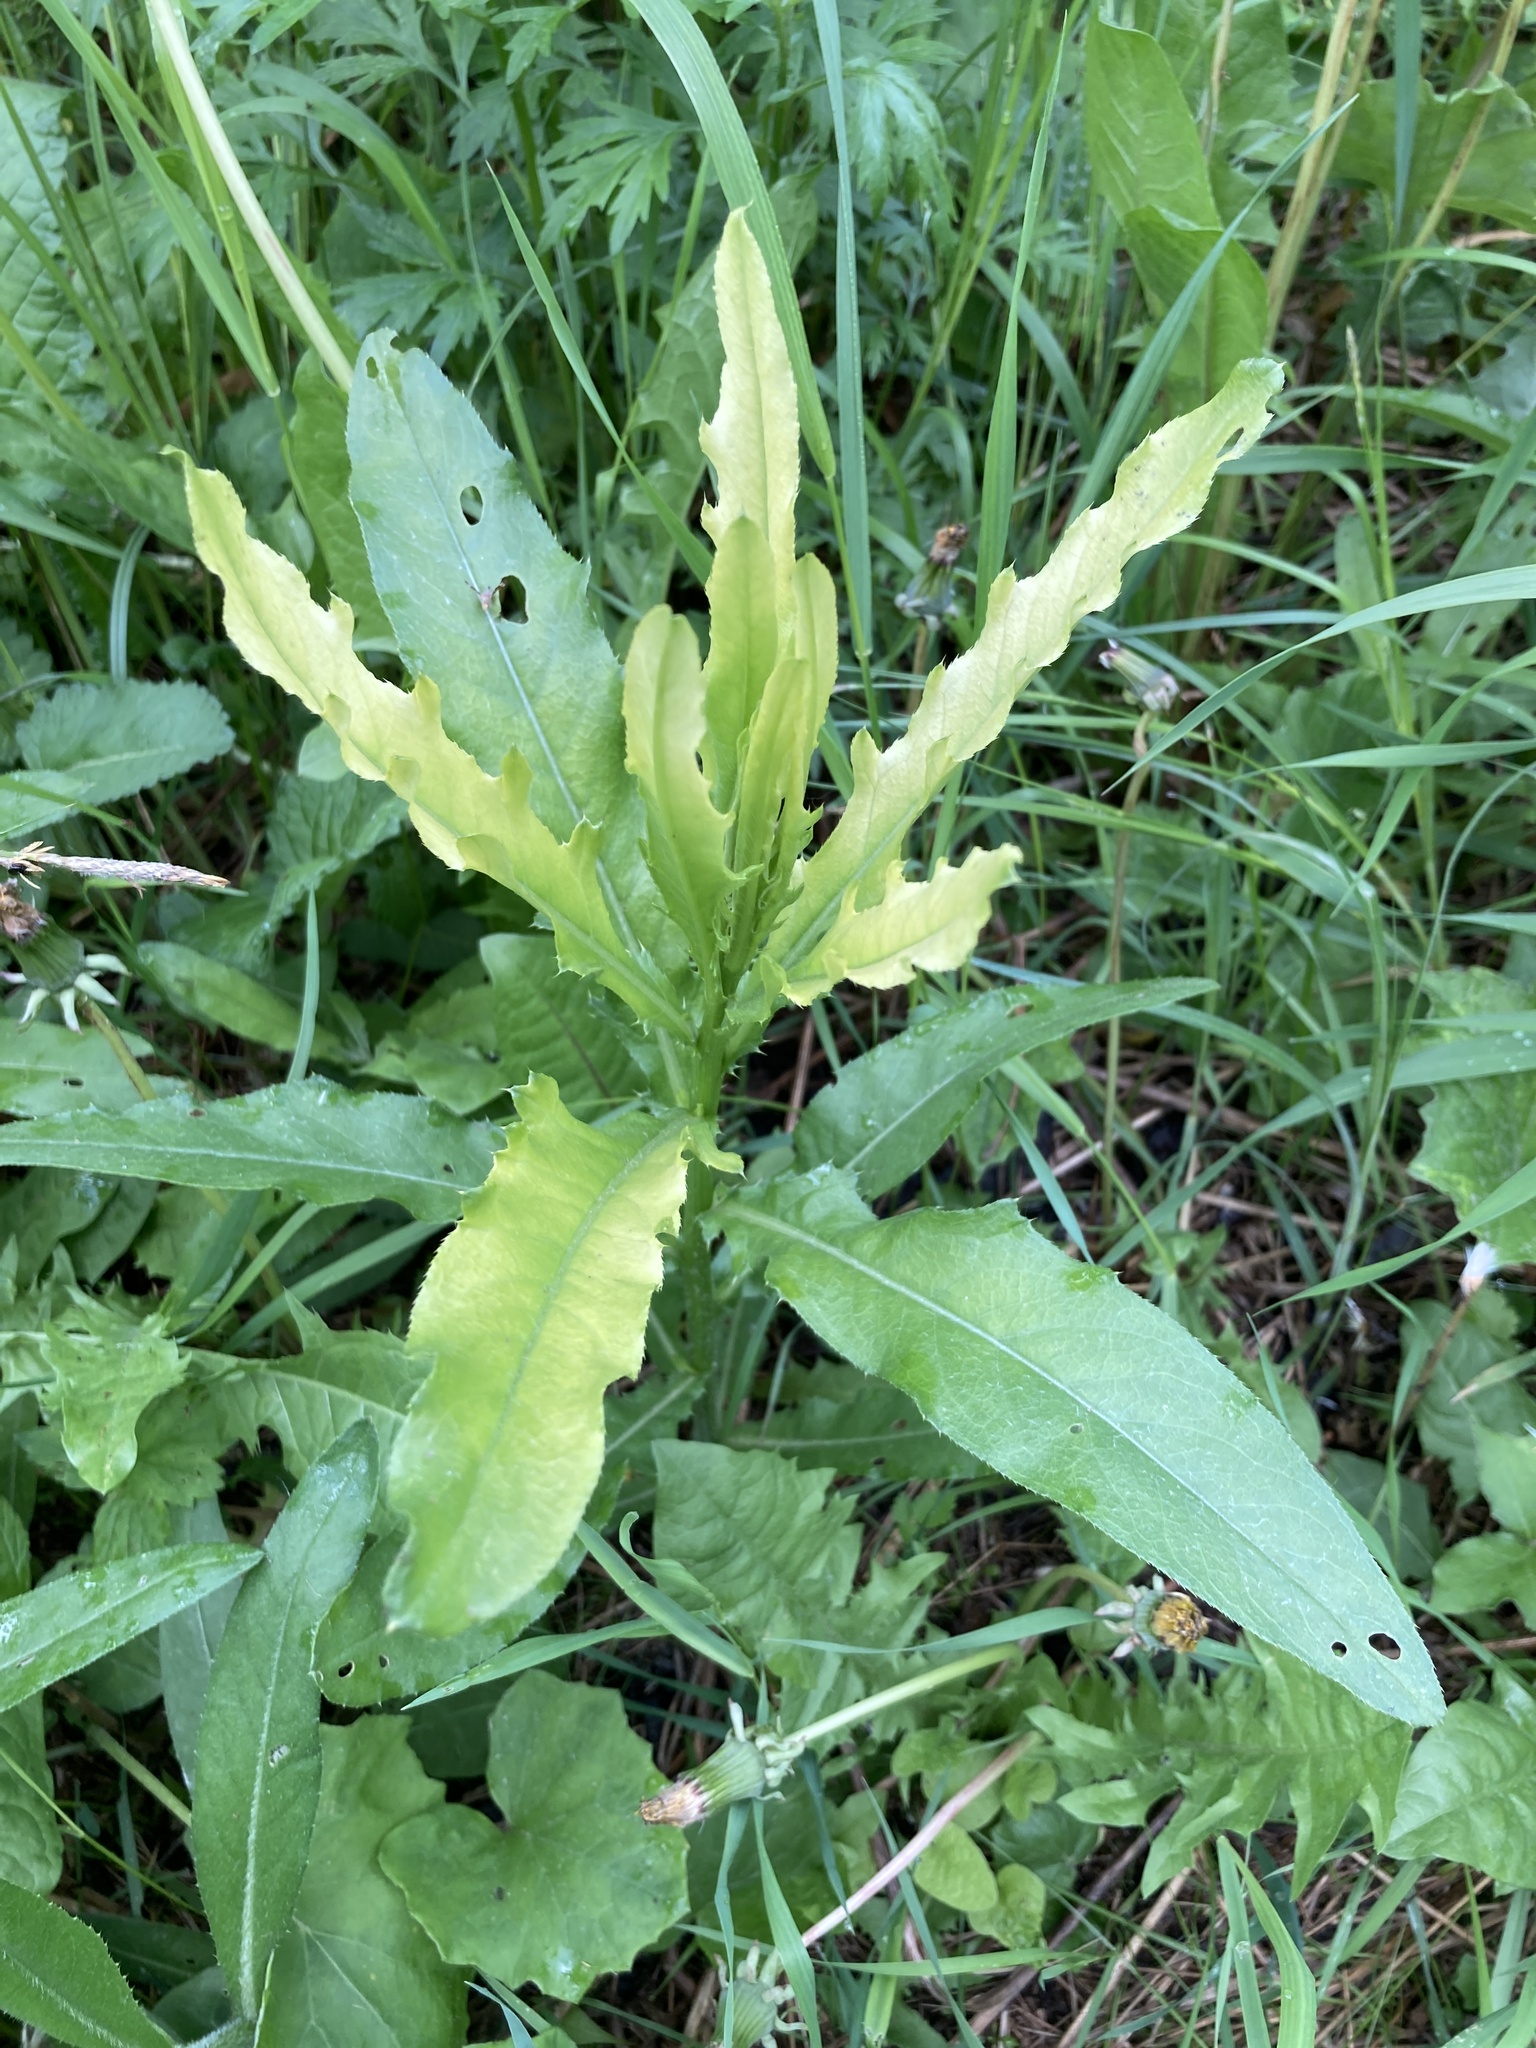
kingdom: Plantae
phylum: Tracheophyta
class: Magnoliopsida
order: Asterales
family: Asteraceae
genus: Cirsium
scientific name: Cirsium arvense
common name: Creeping thistle
